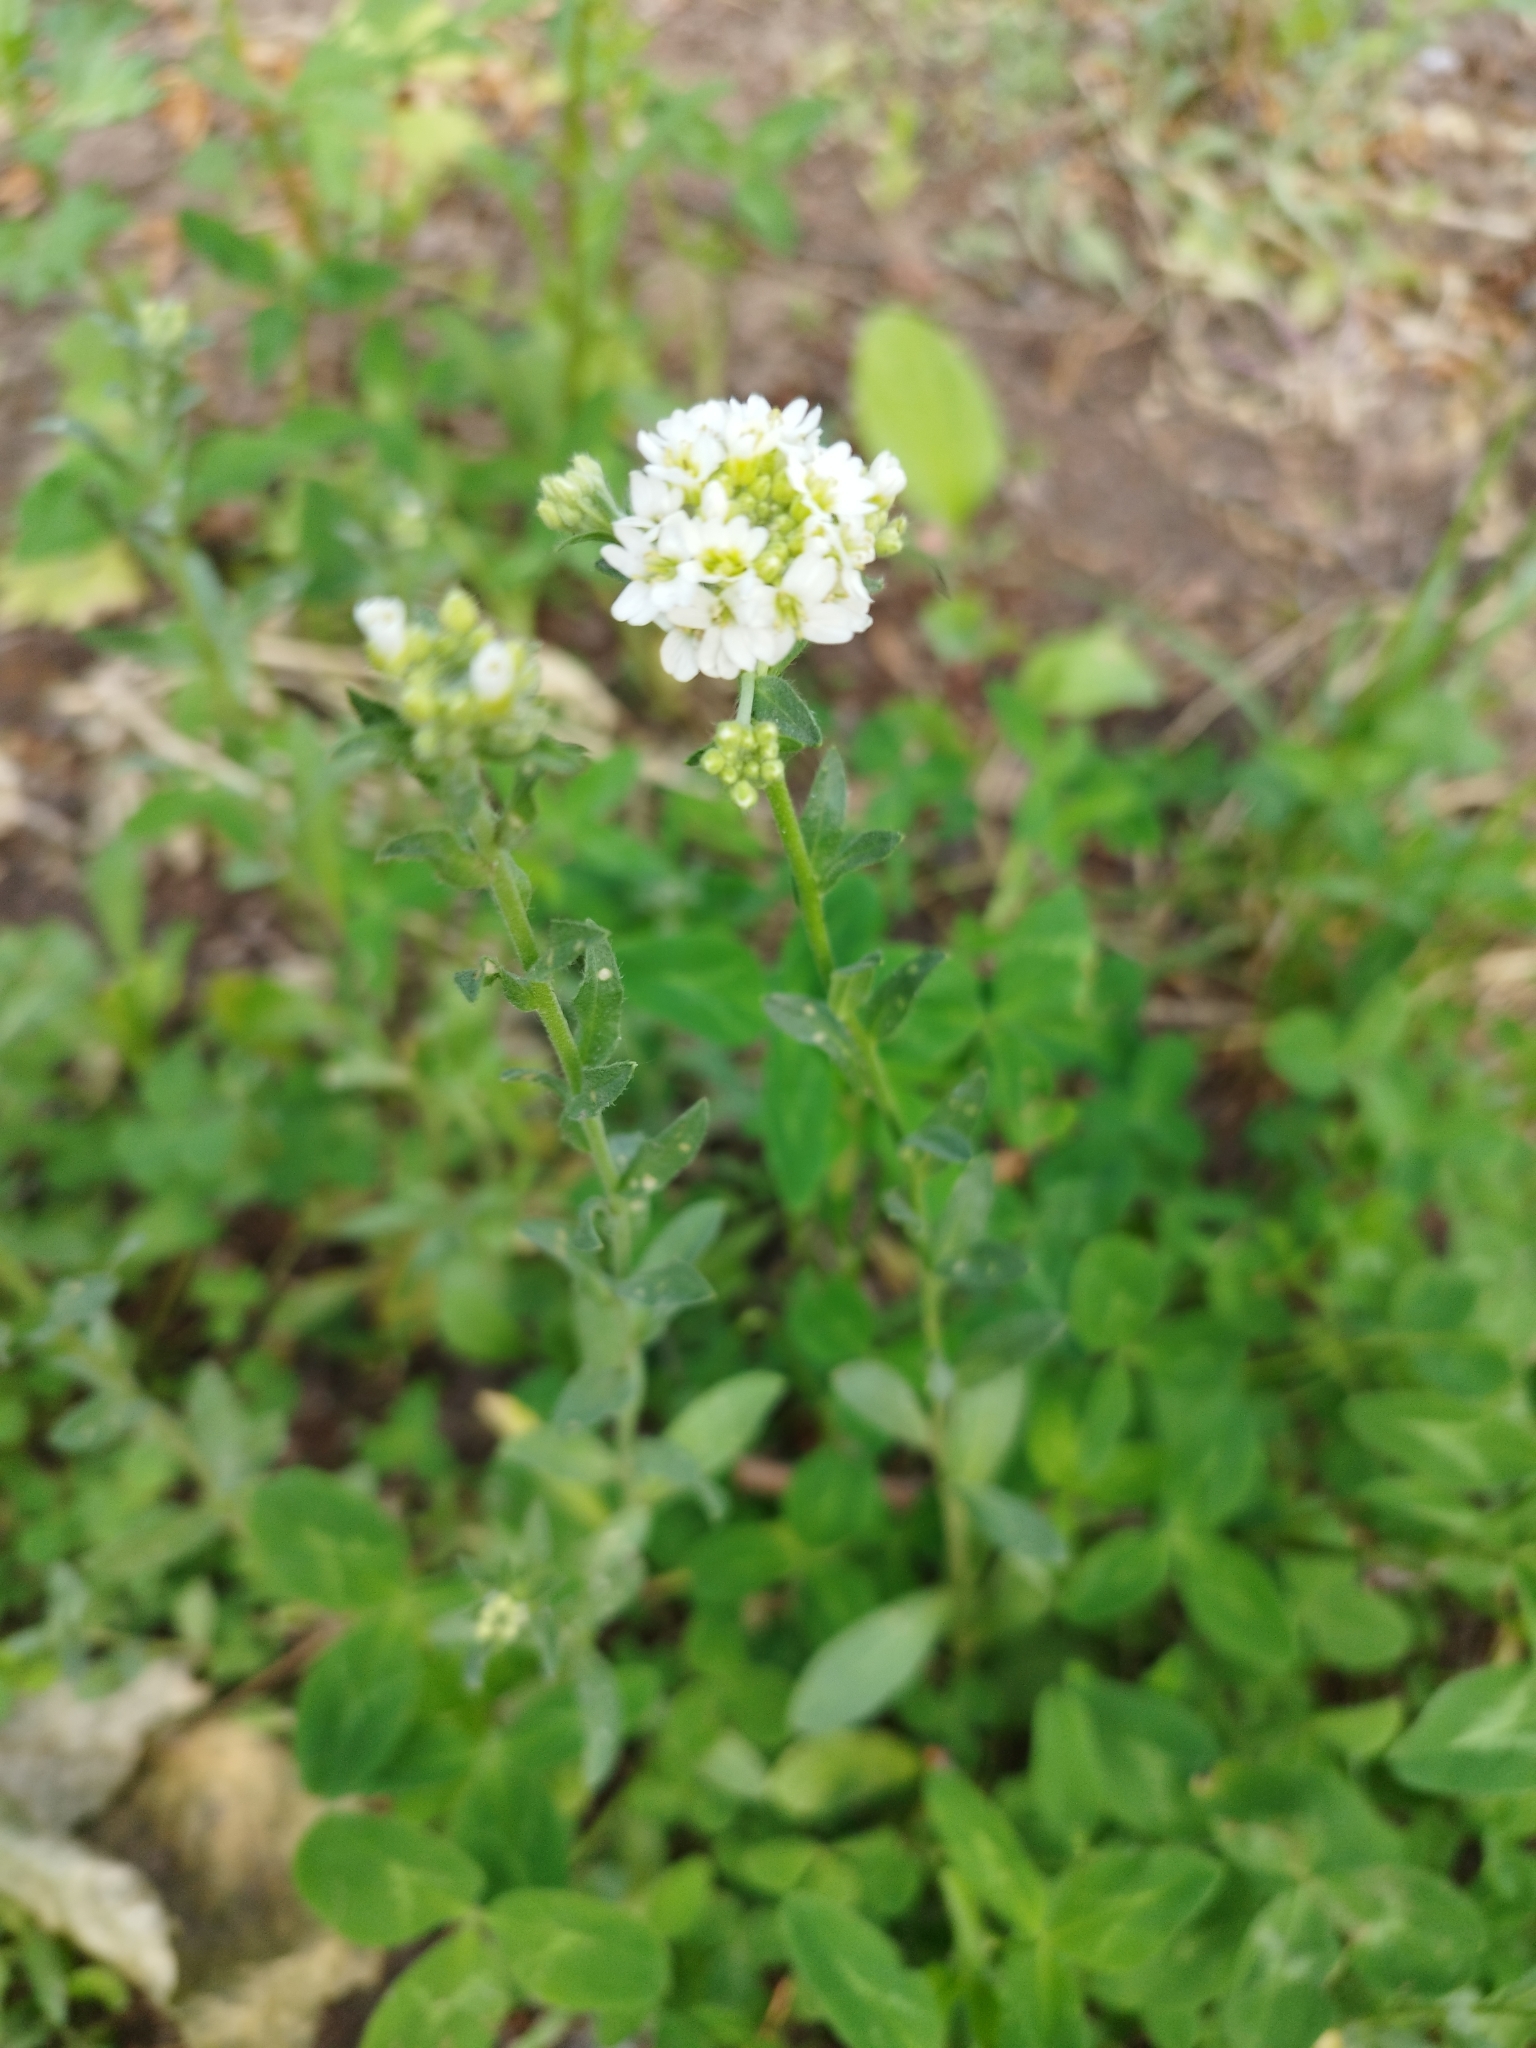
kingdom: Plantae
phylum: Tracheophyta
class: Magnoliopsida
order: Brassicales
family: Brassicaceae
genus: Berteroa
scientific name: Berteroa incana
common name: Hoary alison
